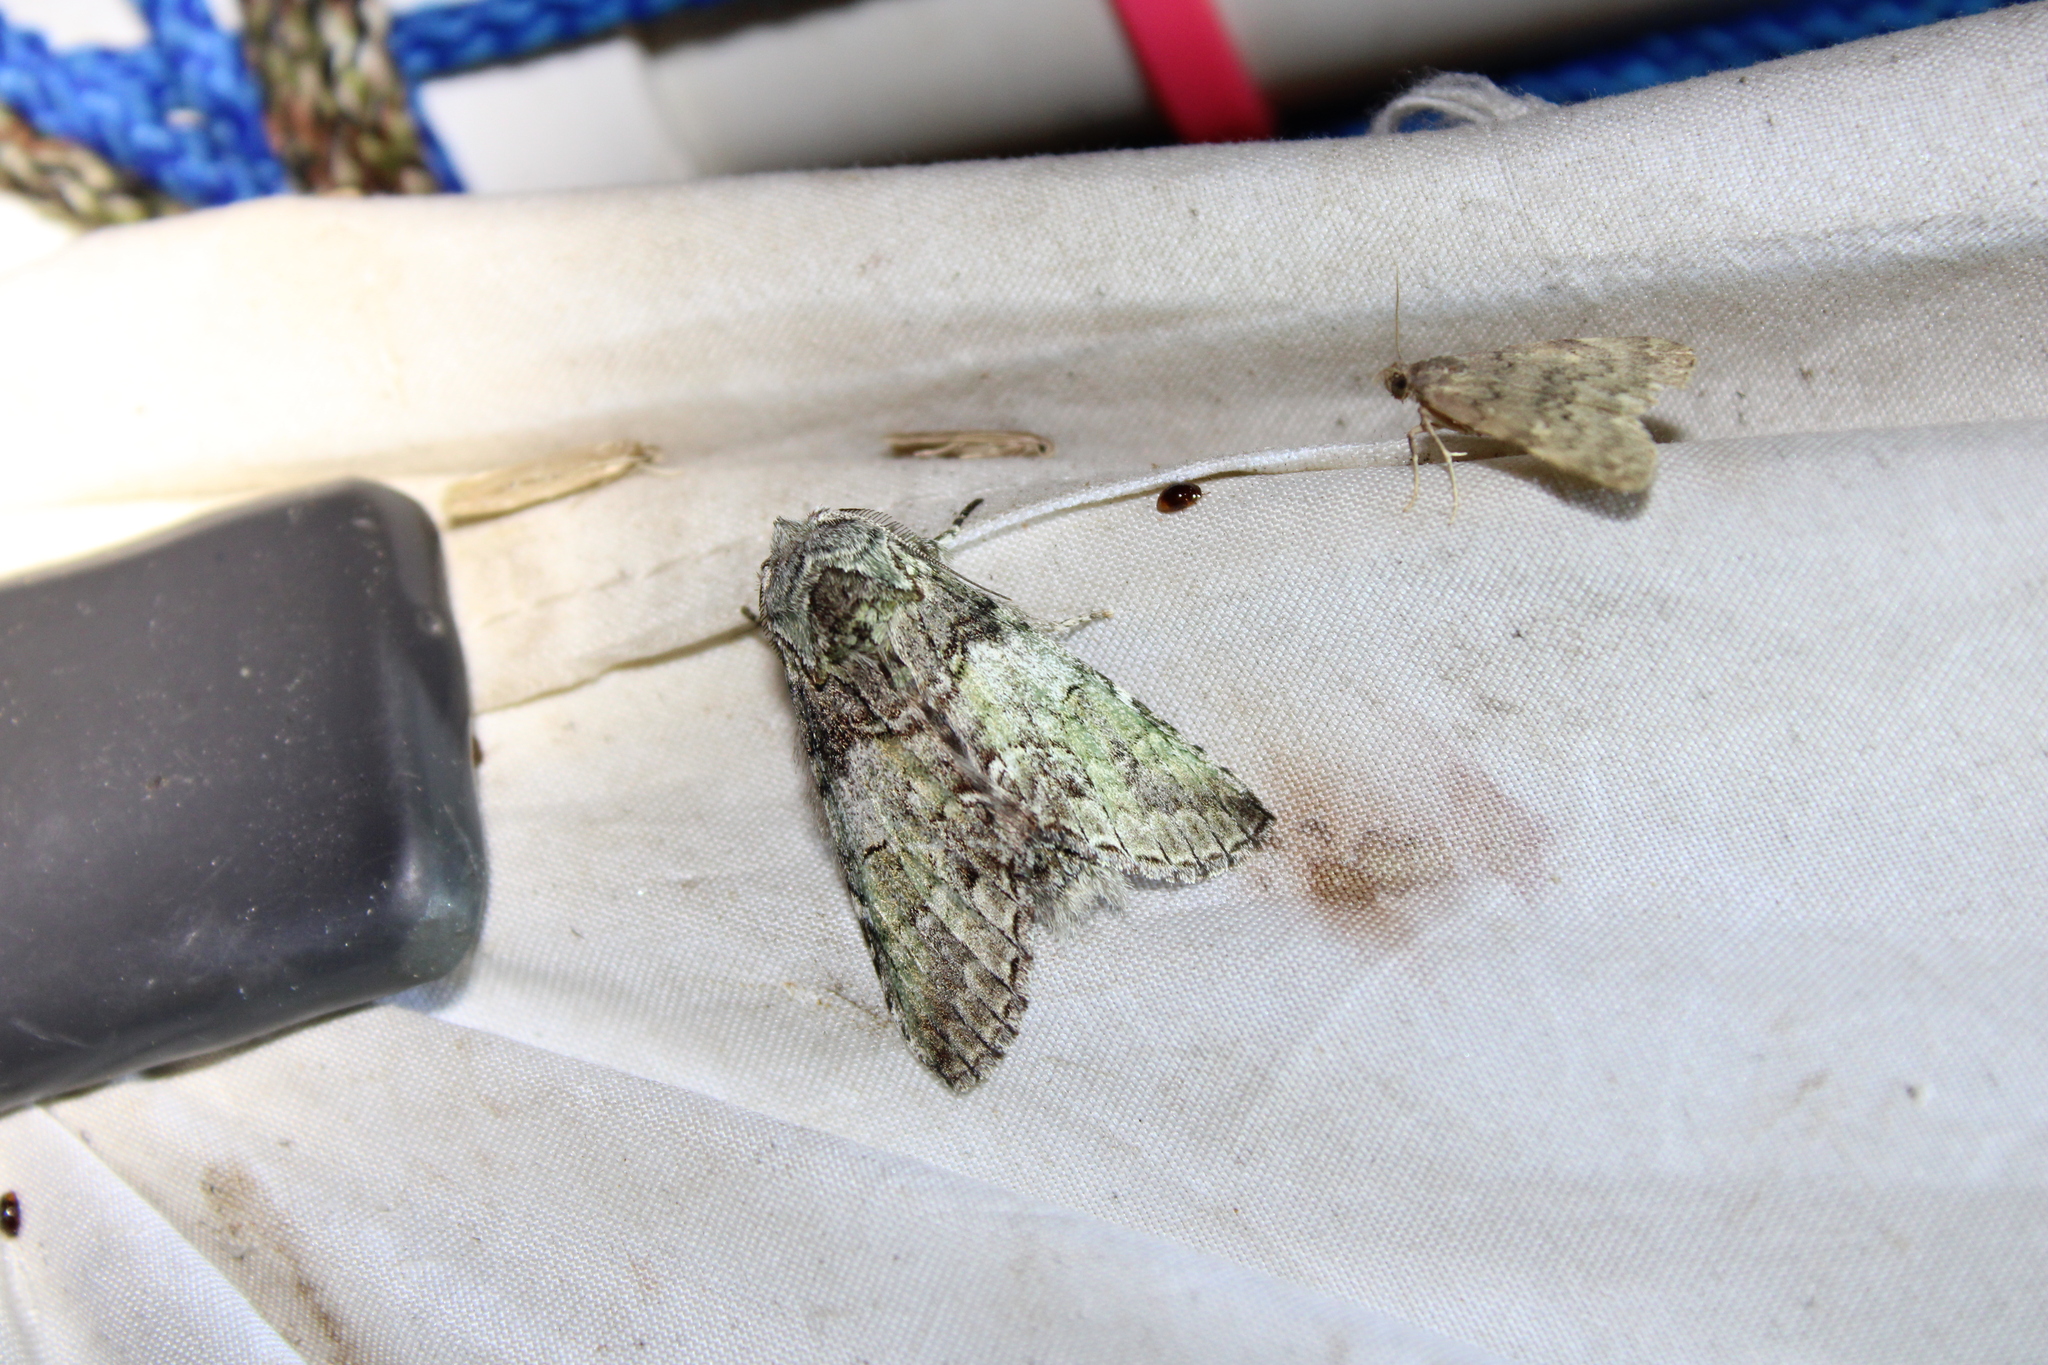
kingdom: Animalia
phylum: Arthropoda
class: Insecta
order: Lepidoptera
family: Notodontidae
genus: Macrurocampa
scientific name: Macrurocampa marthesia
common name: Mottled prominent
